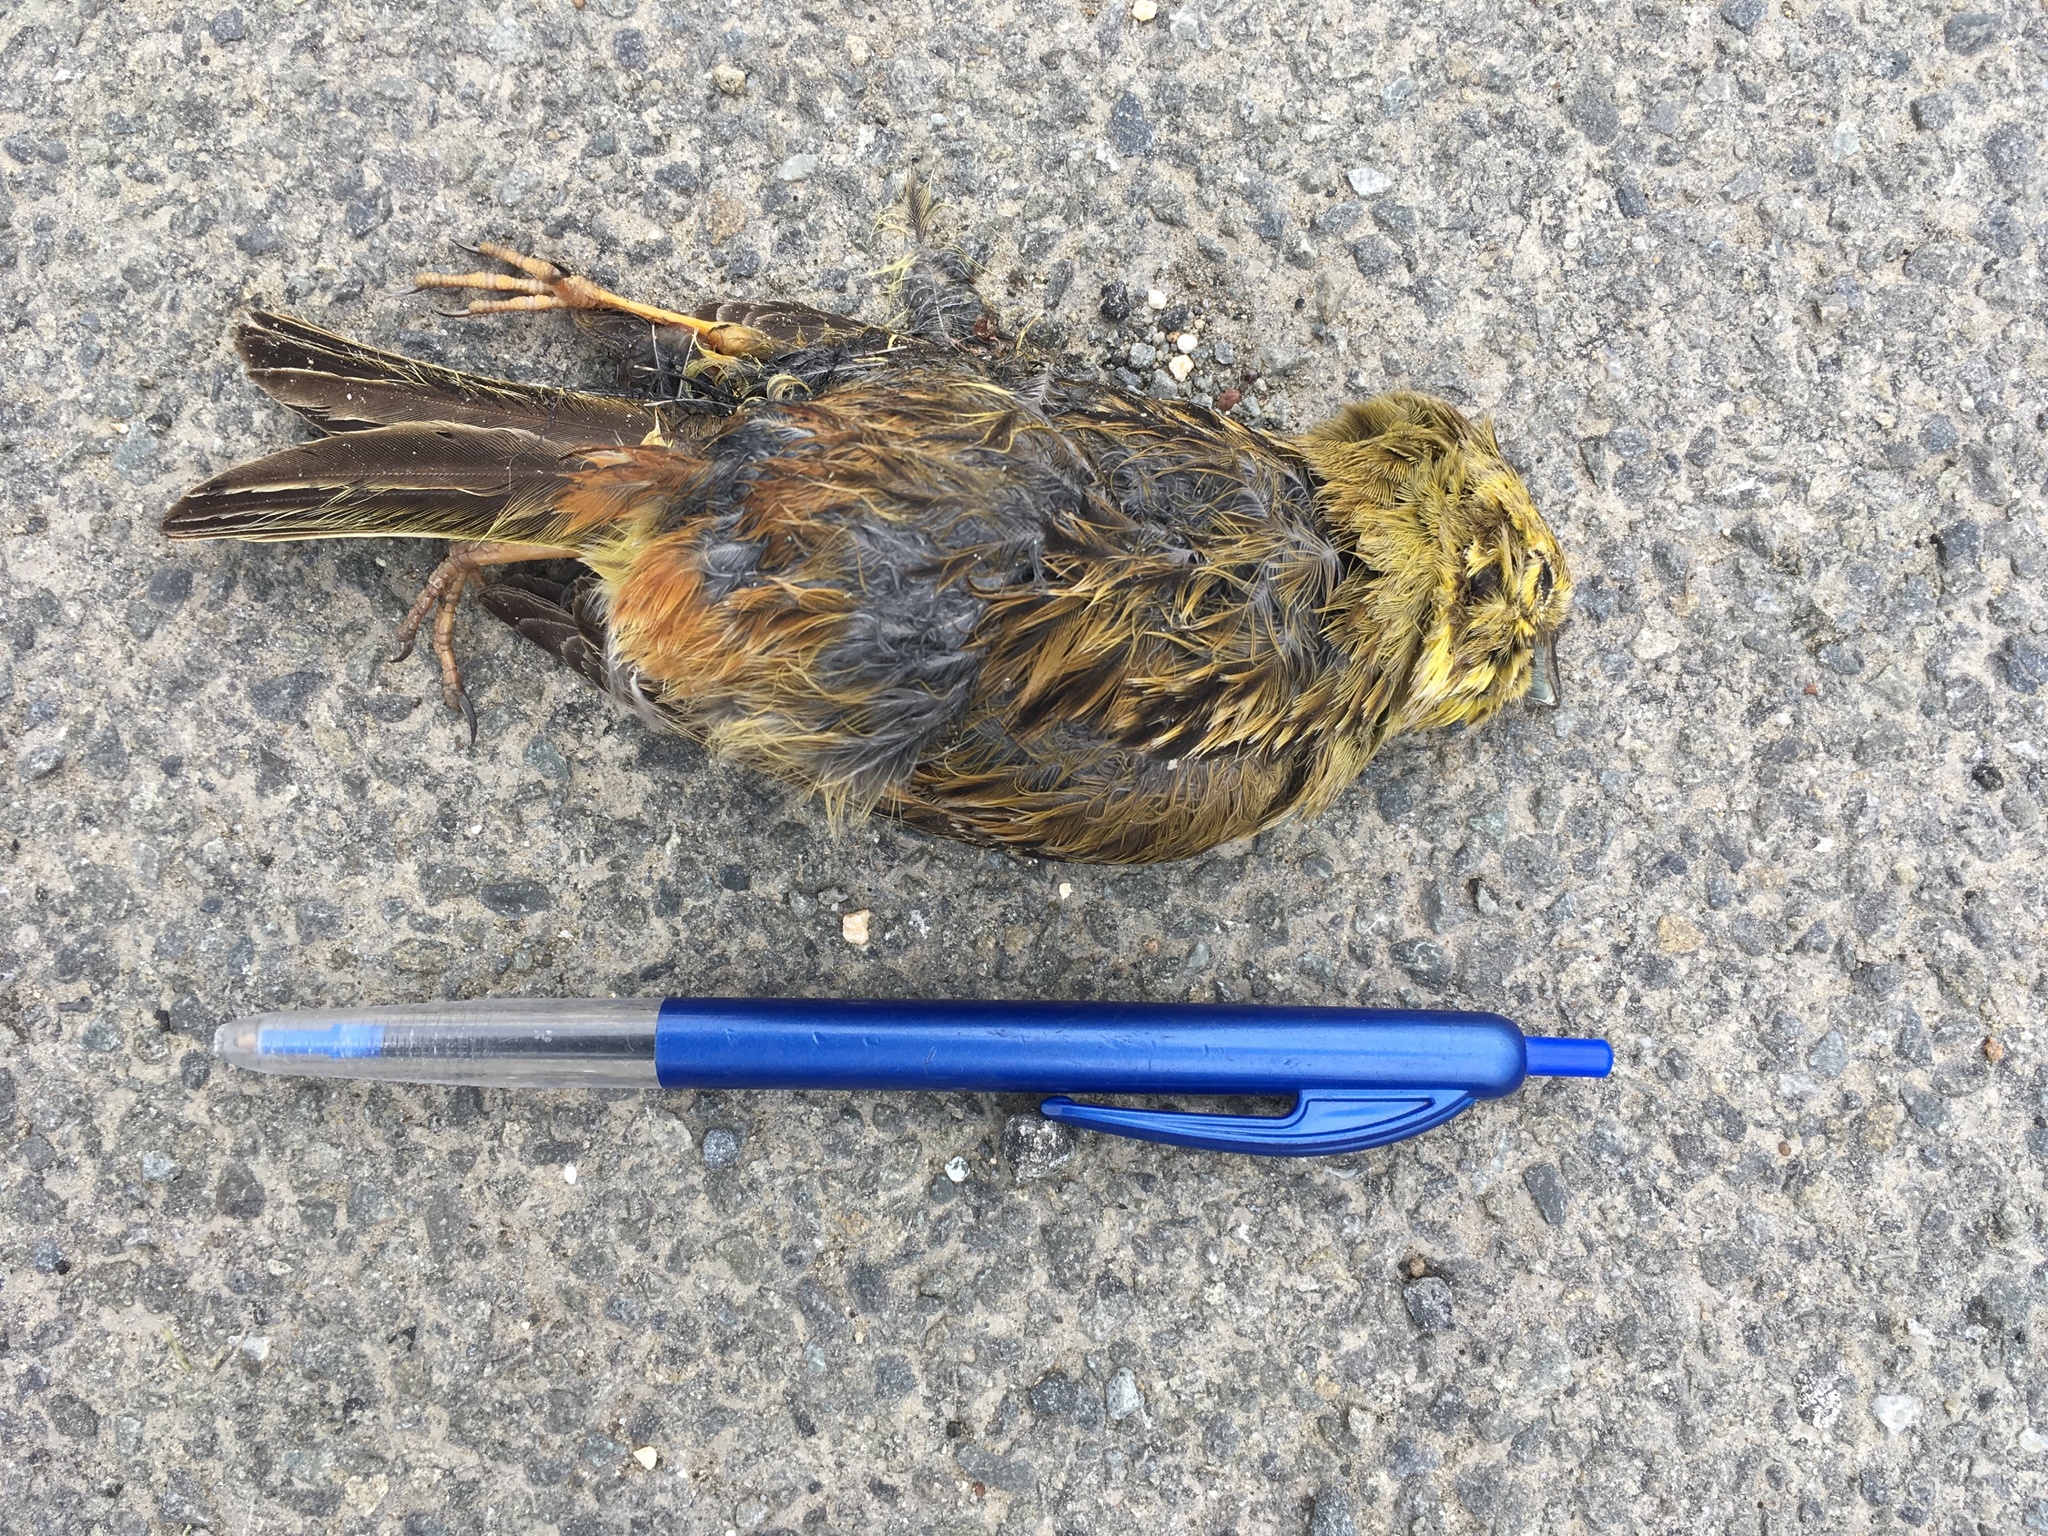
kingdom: Animalia
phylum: Chordata
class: Aves
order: Passeriformes
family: Emberizidae
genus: Emberiza
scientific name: Emberiza citrinella
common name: Yellowhammer
